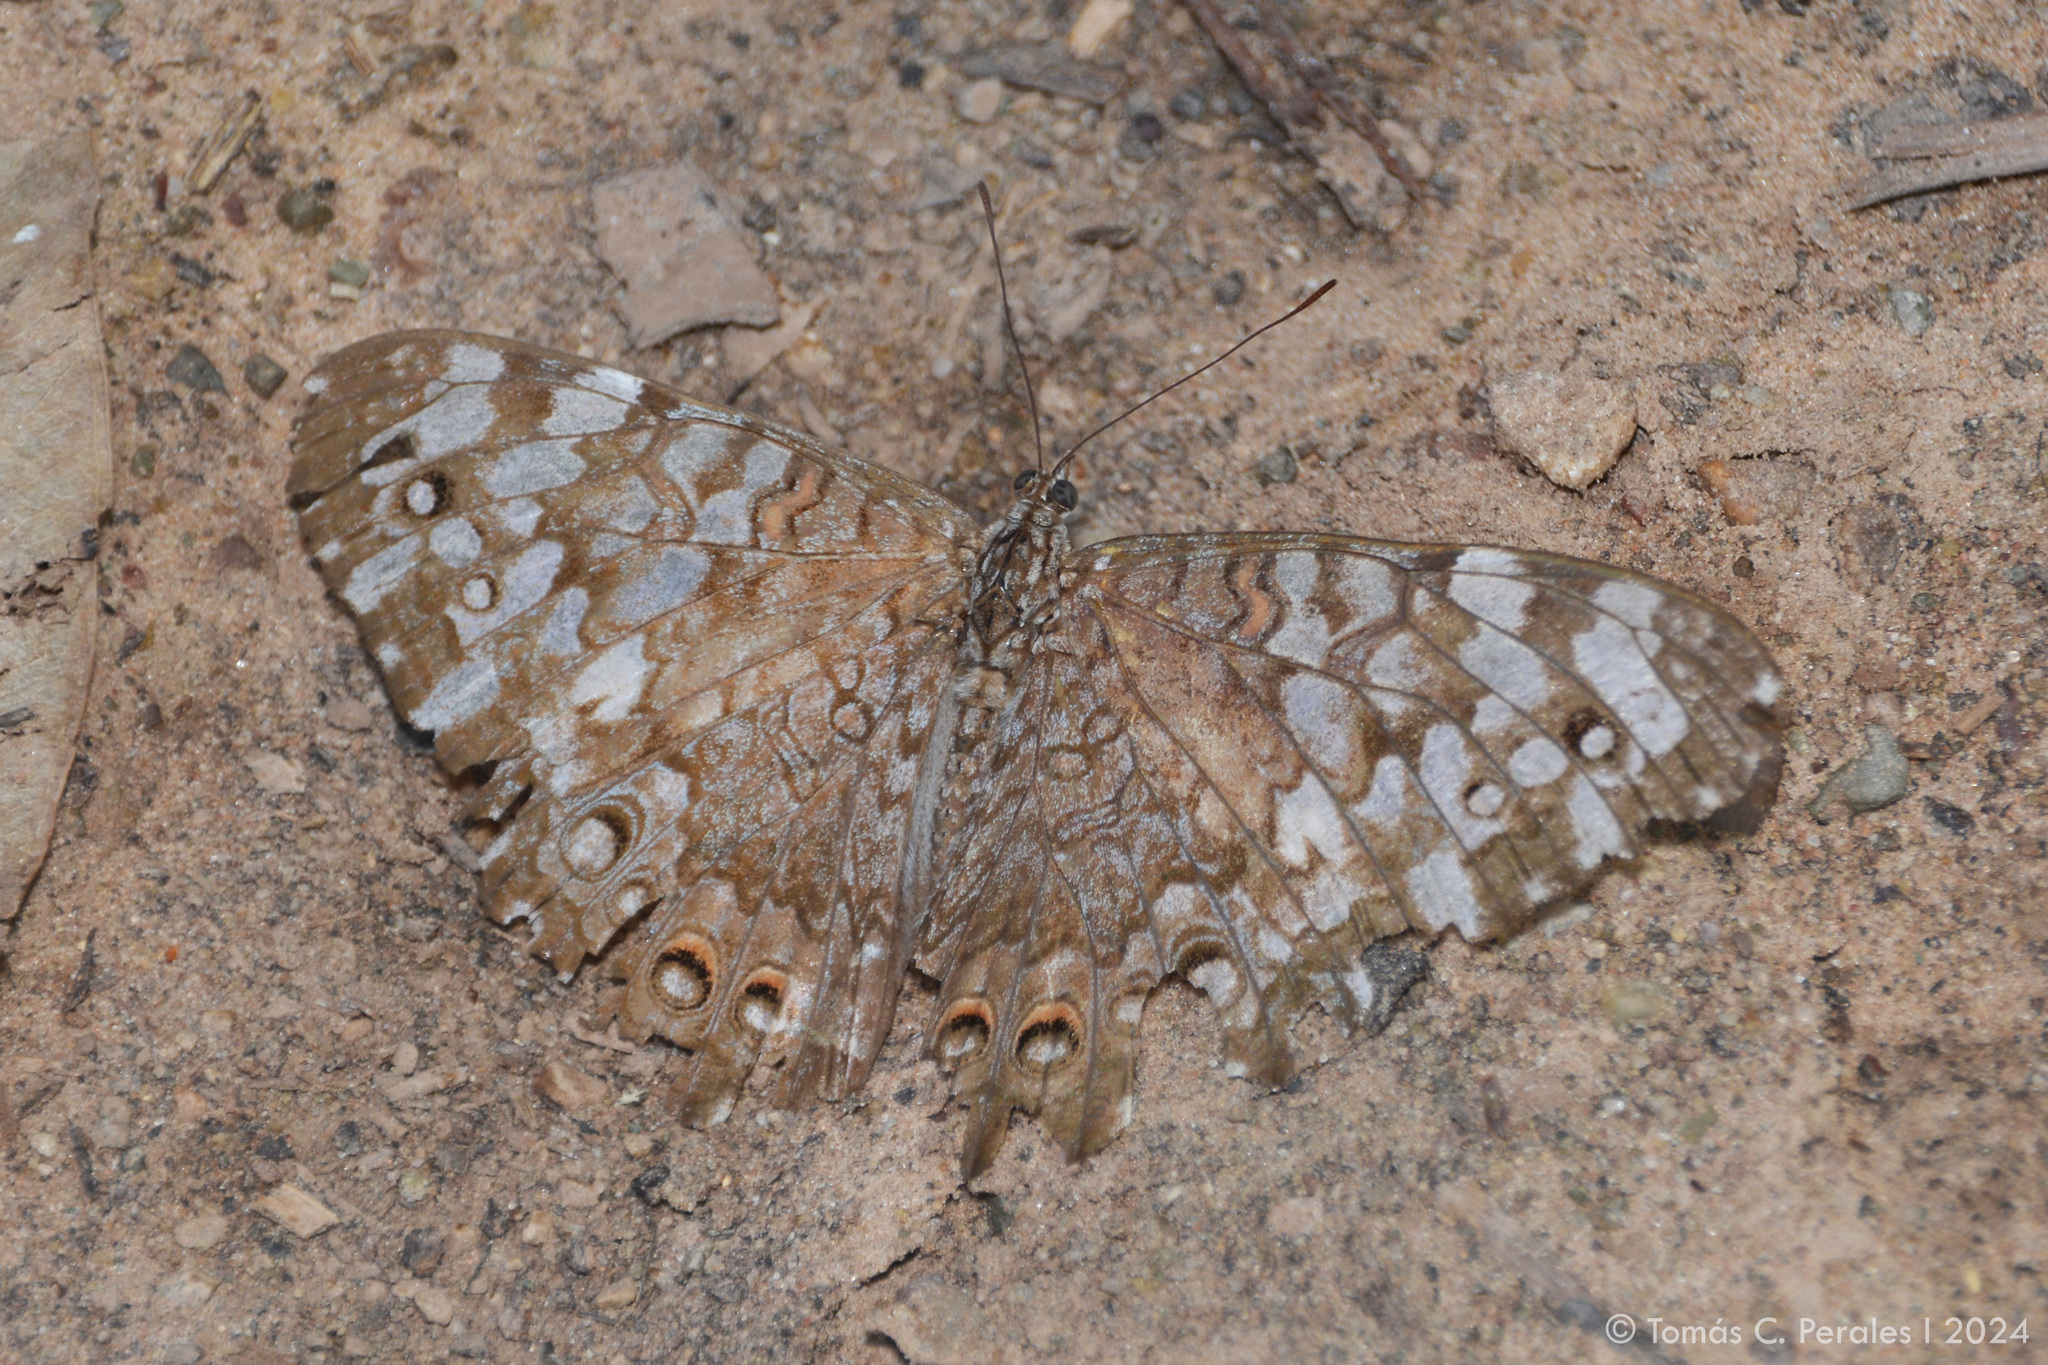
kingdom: Animalia
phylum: Arthropoda
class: Insecta
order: Lepidoptera
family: Nymphalidae
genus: Hamadryas
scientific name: Hamadryas februa
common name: Gray cracker
